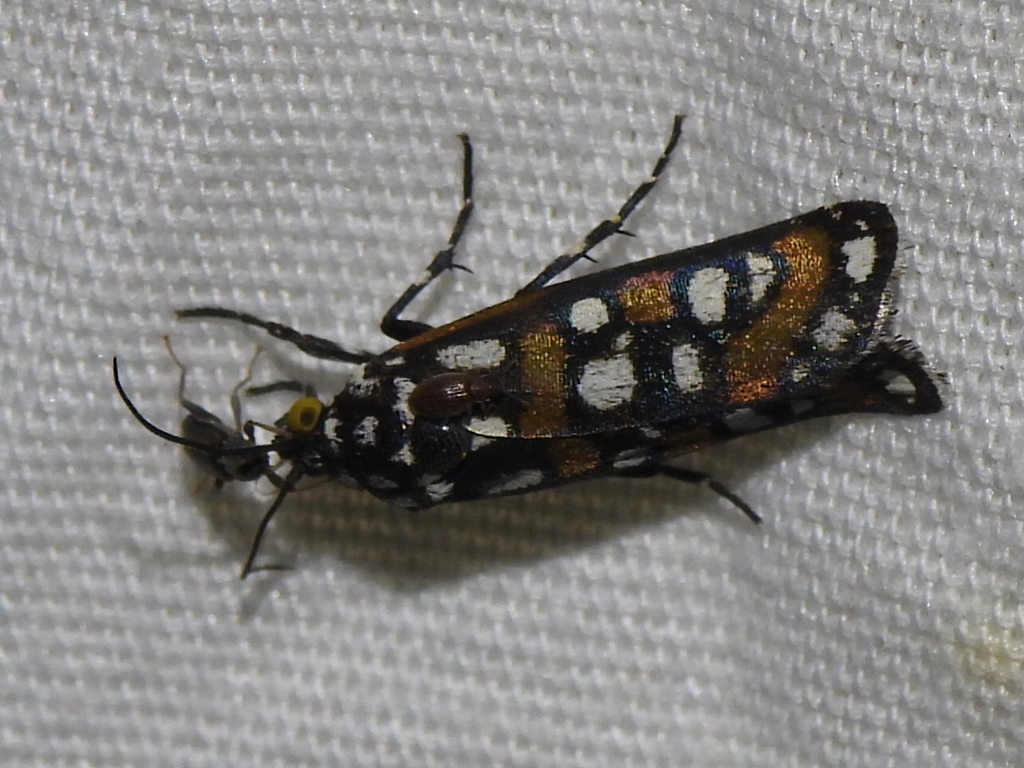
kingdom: Animalia
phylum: Arthropoda
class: Insecta
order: Lepidoptera
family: Noctuidae
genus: Cydosia
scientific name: Cydosia aurivitta
